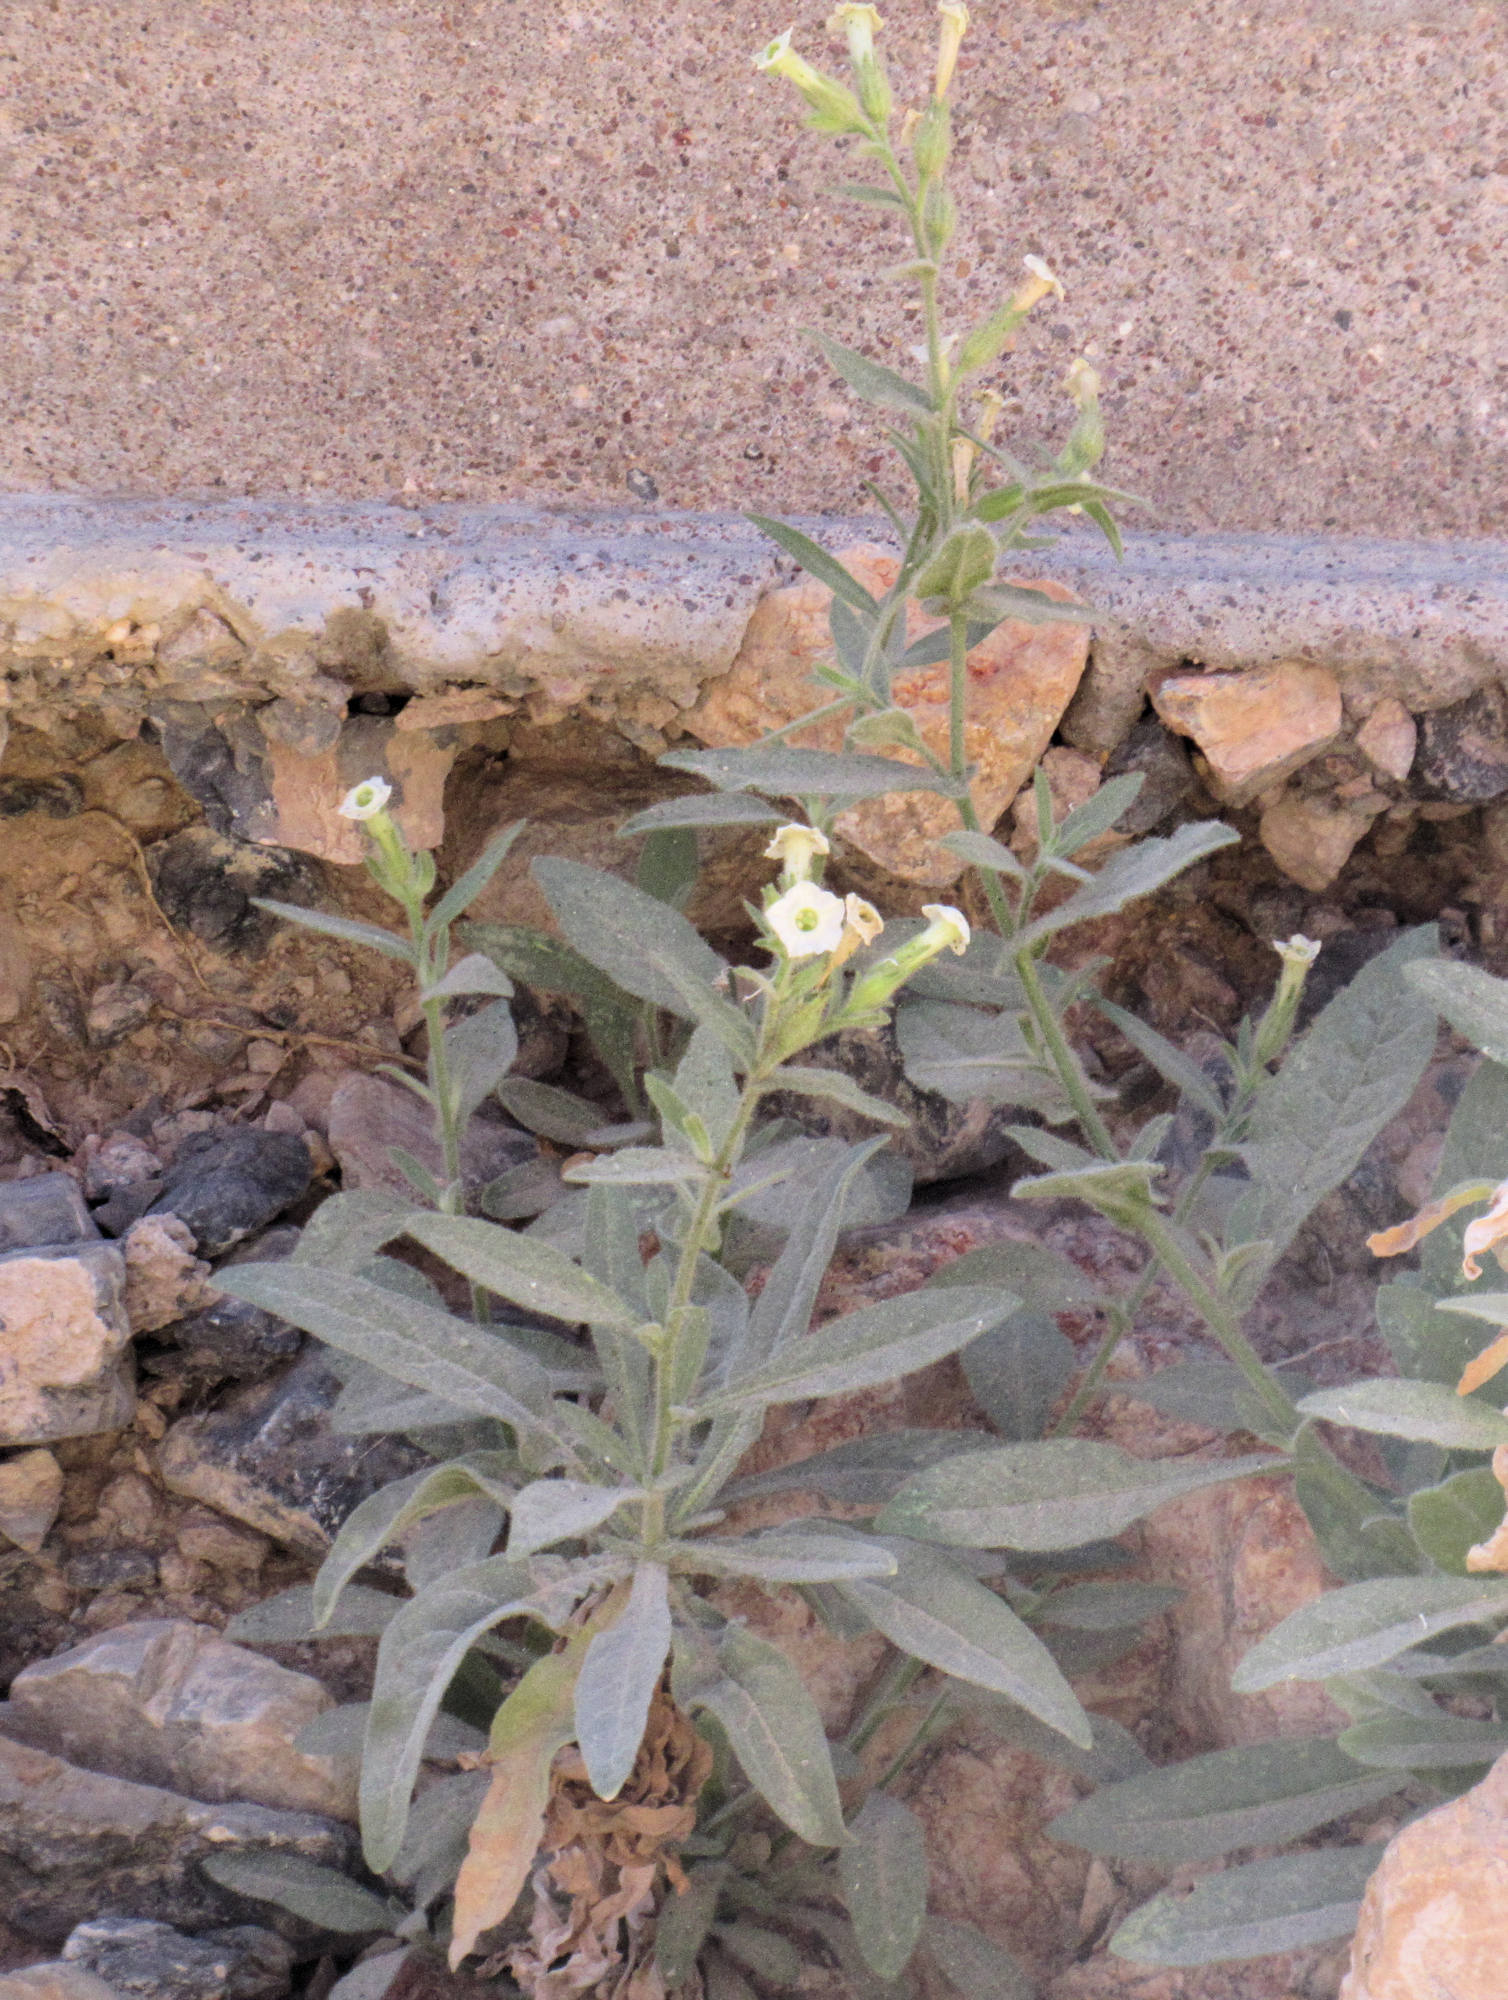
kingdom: Plantae
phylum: Tracheophyta
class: Magnoliopsida
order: Solanales
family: Solanaceae
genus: Nicotiana
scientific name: Nicotiana obtusifolia
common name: Desert tobacco
